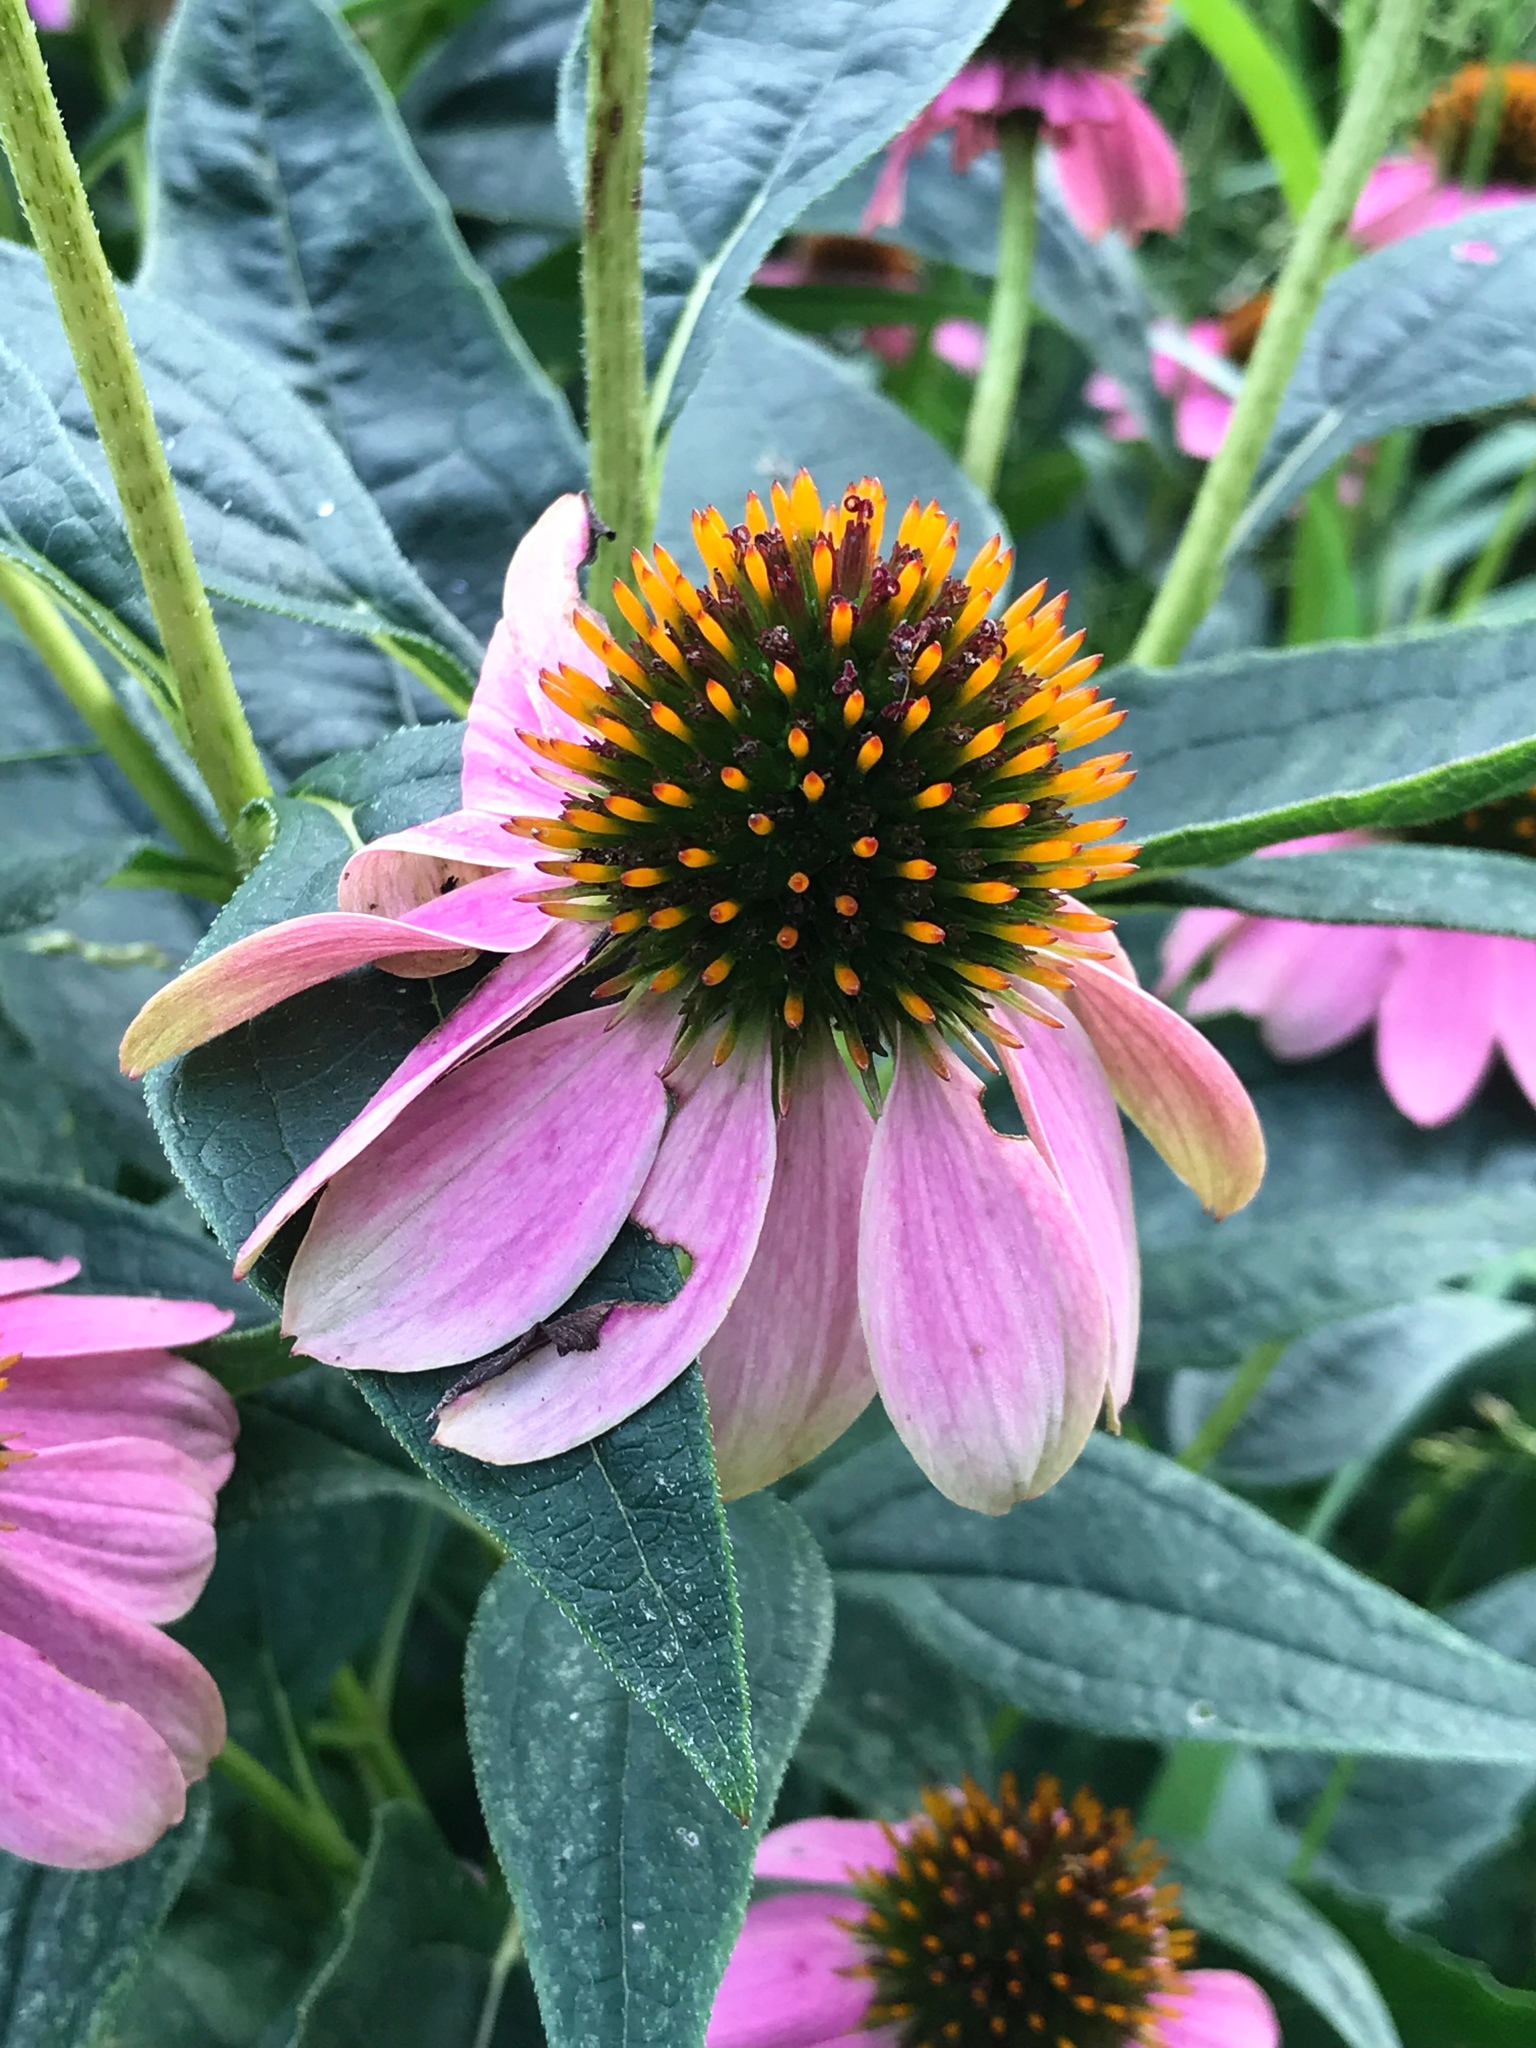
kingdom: Plantae
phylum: Tracheophyta
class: Magnoliopsida
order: Asterales
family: Asteraceae
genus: Echinacea
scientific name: Echinacea purpurea
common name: Broad-leaved purple coneflower
